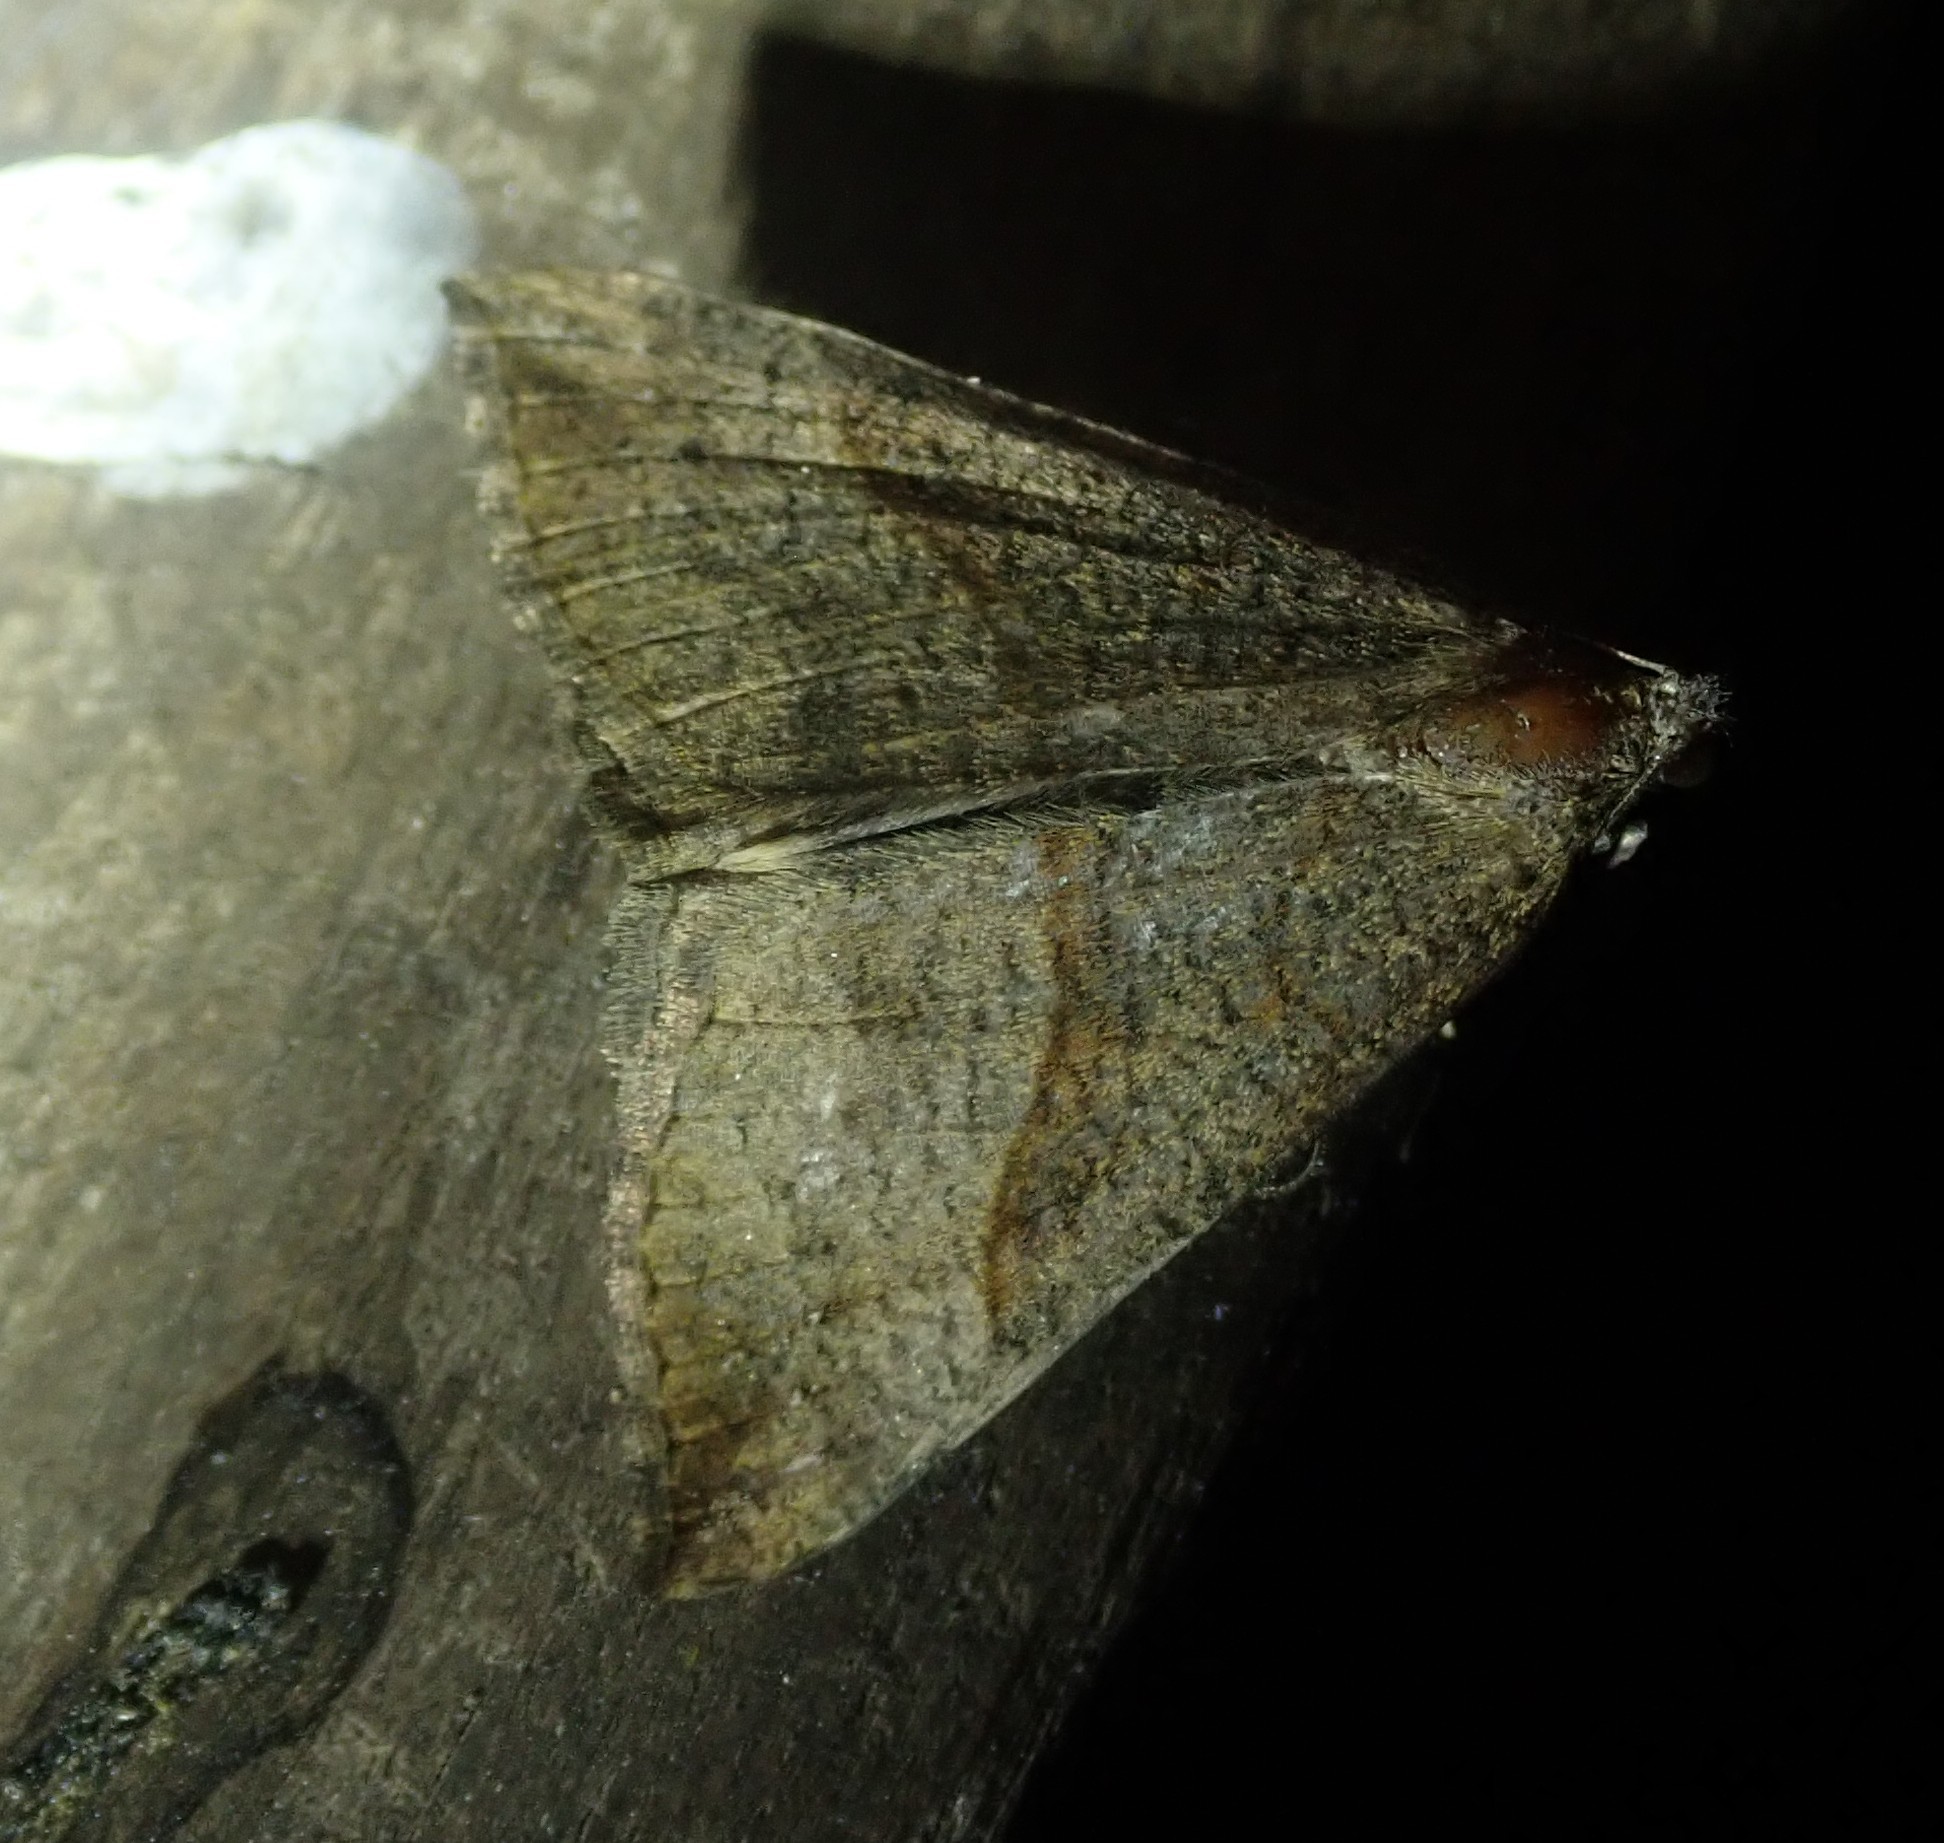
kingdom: Animalia
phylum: Arthropoda
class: Insecta
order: Lepidoptera
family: Erebidae
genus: Hypena
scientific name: Hypena proboscidalis
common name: Snout
